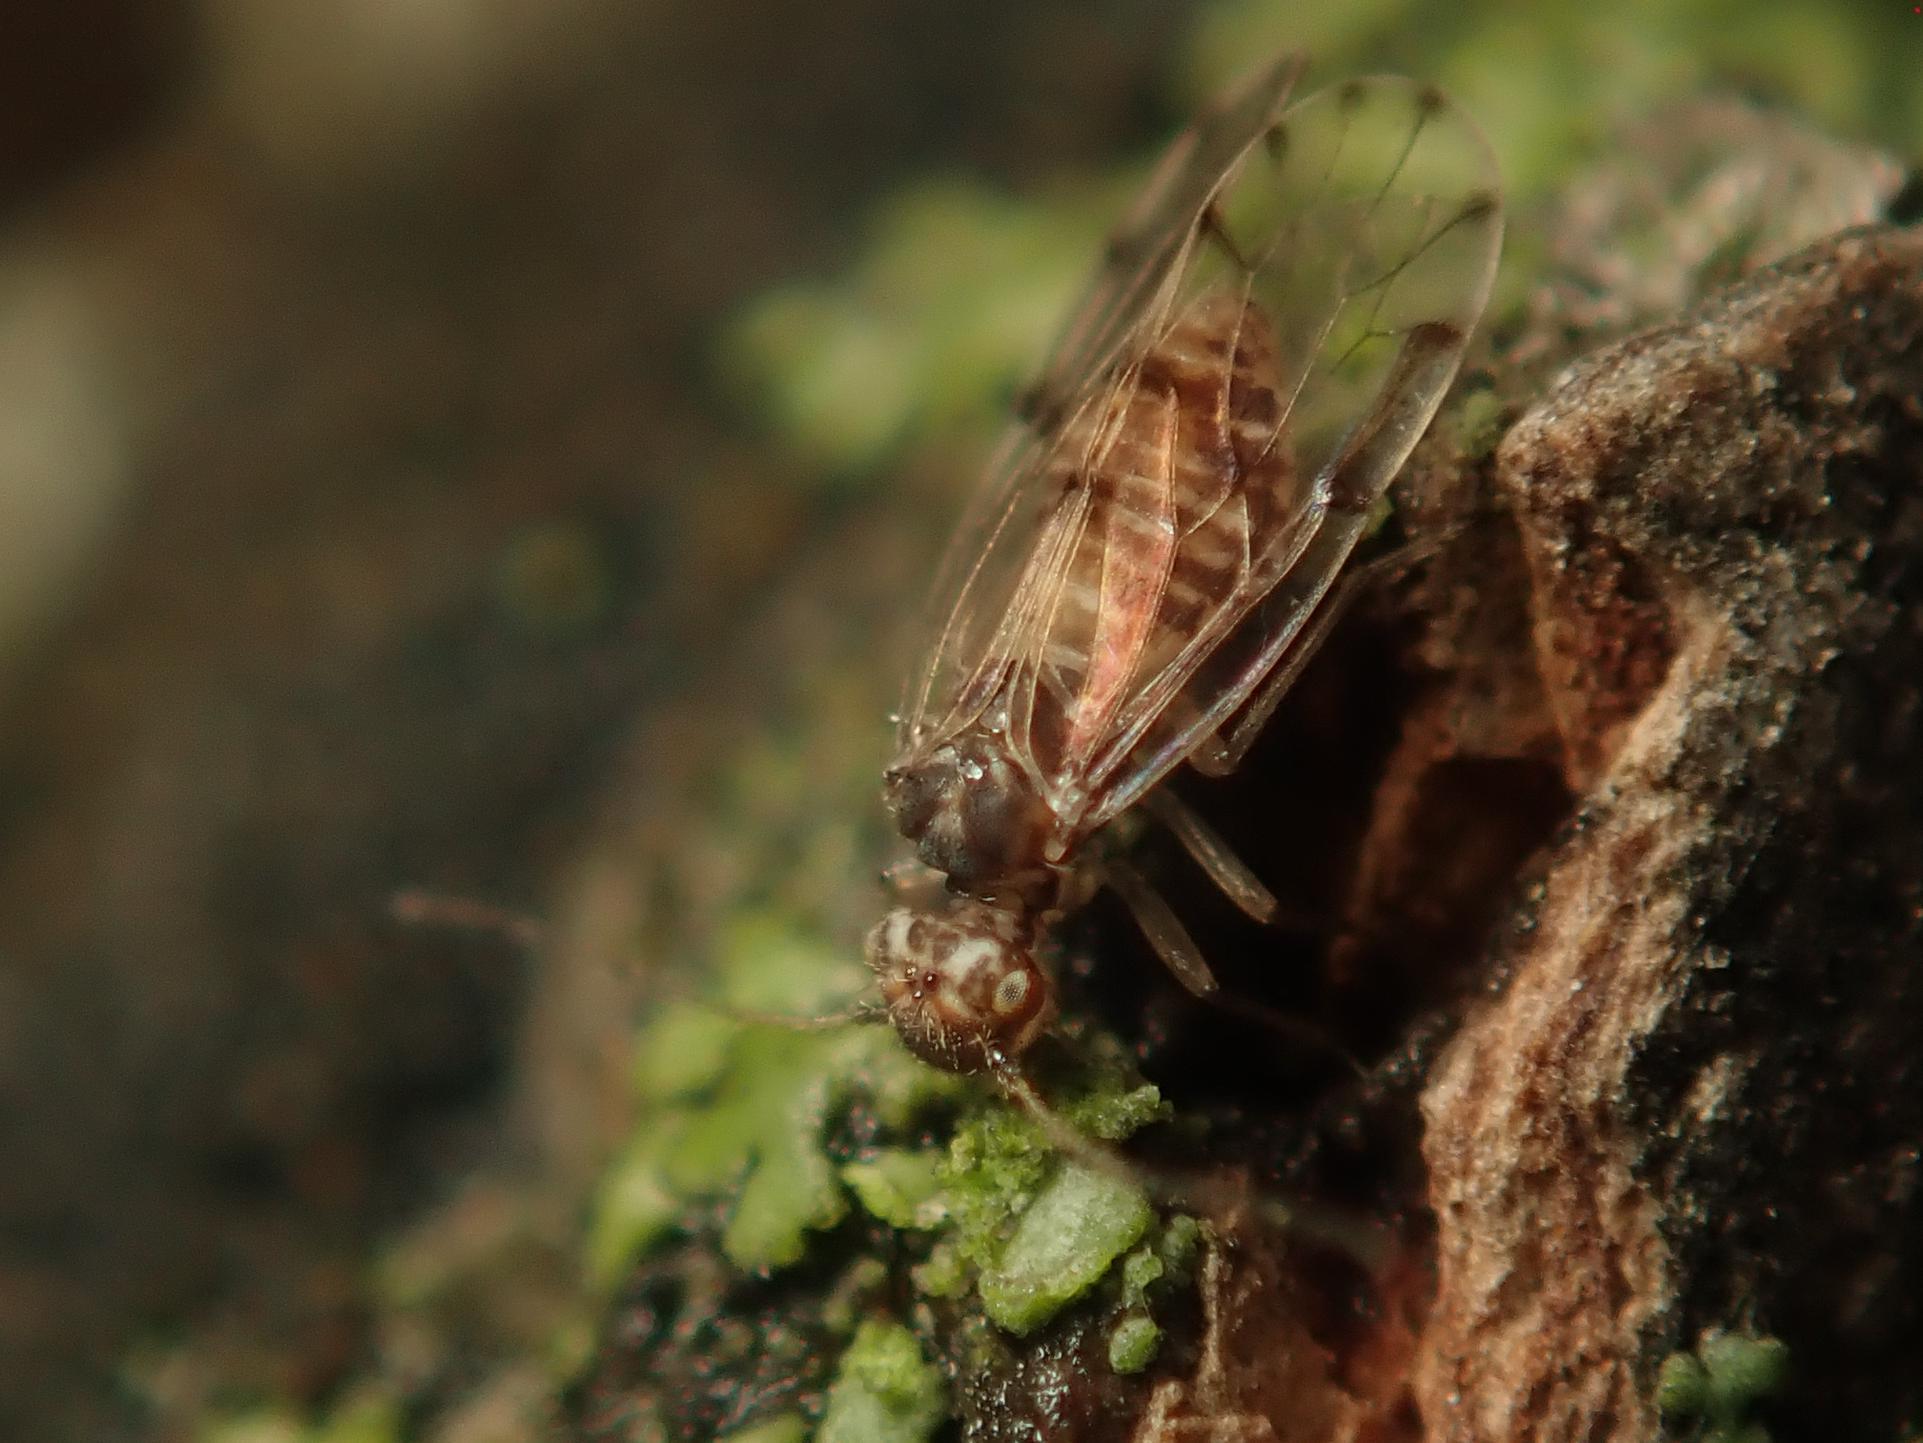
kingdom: Animalia
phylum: Arthropoda
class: Insecta
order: Psocodea
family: Ectopsocidae
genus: Ectopsocus
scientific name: Ectopsocus petersi
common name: Medium-sized bark louse
